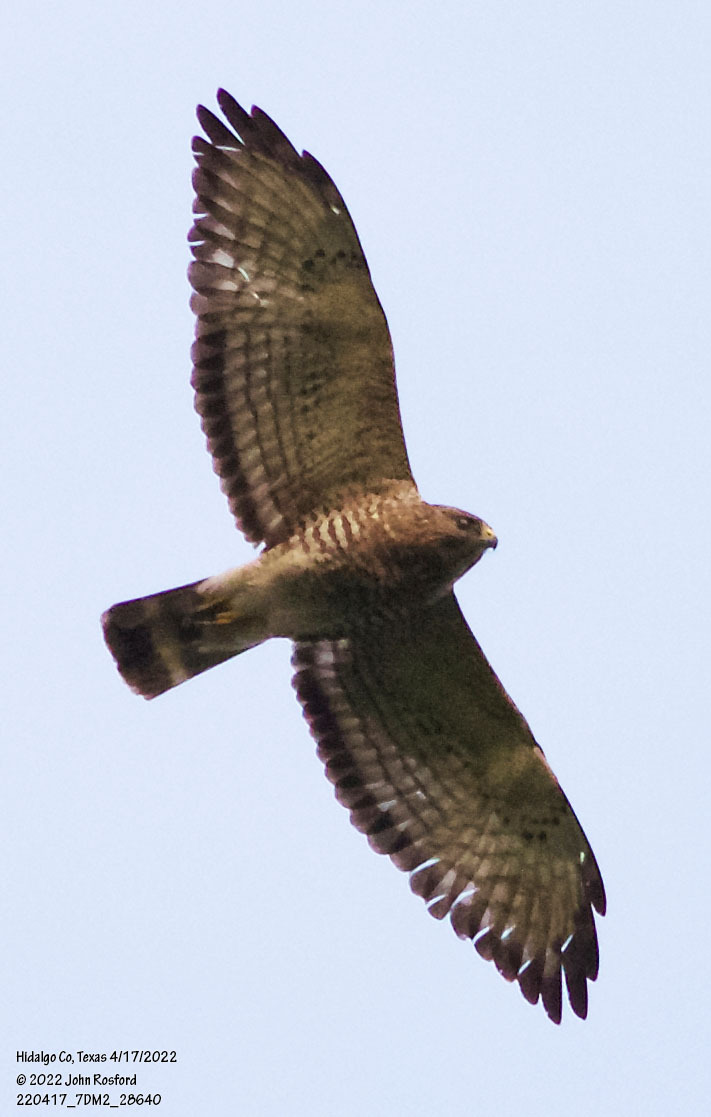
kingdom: Animalia
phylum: Chordata
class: Aves
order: Accipitriformes
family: Accipitridae
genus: Buteo
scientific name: Buteo platypterus
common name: Broad-winged hawk
